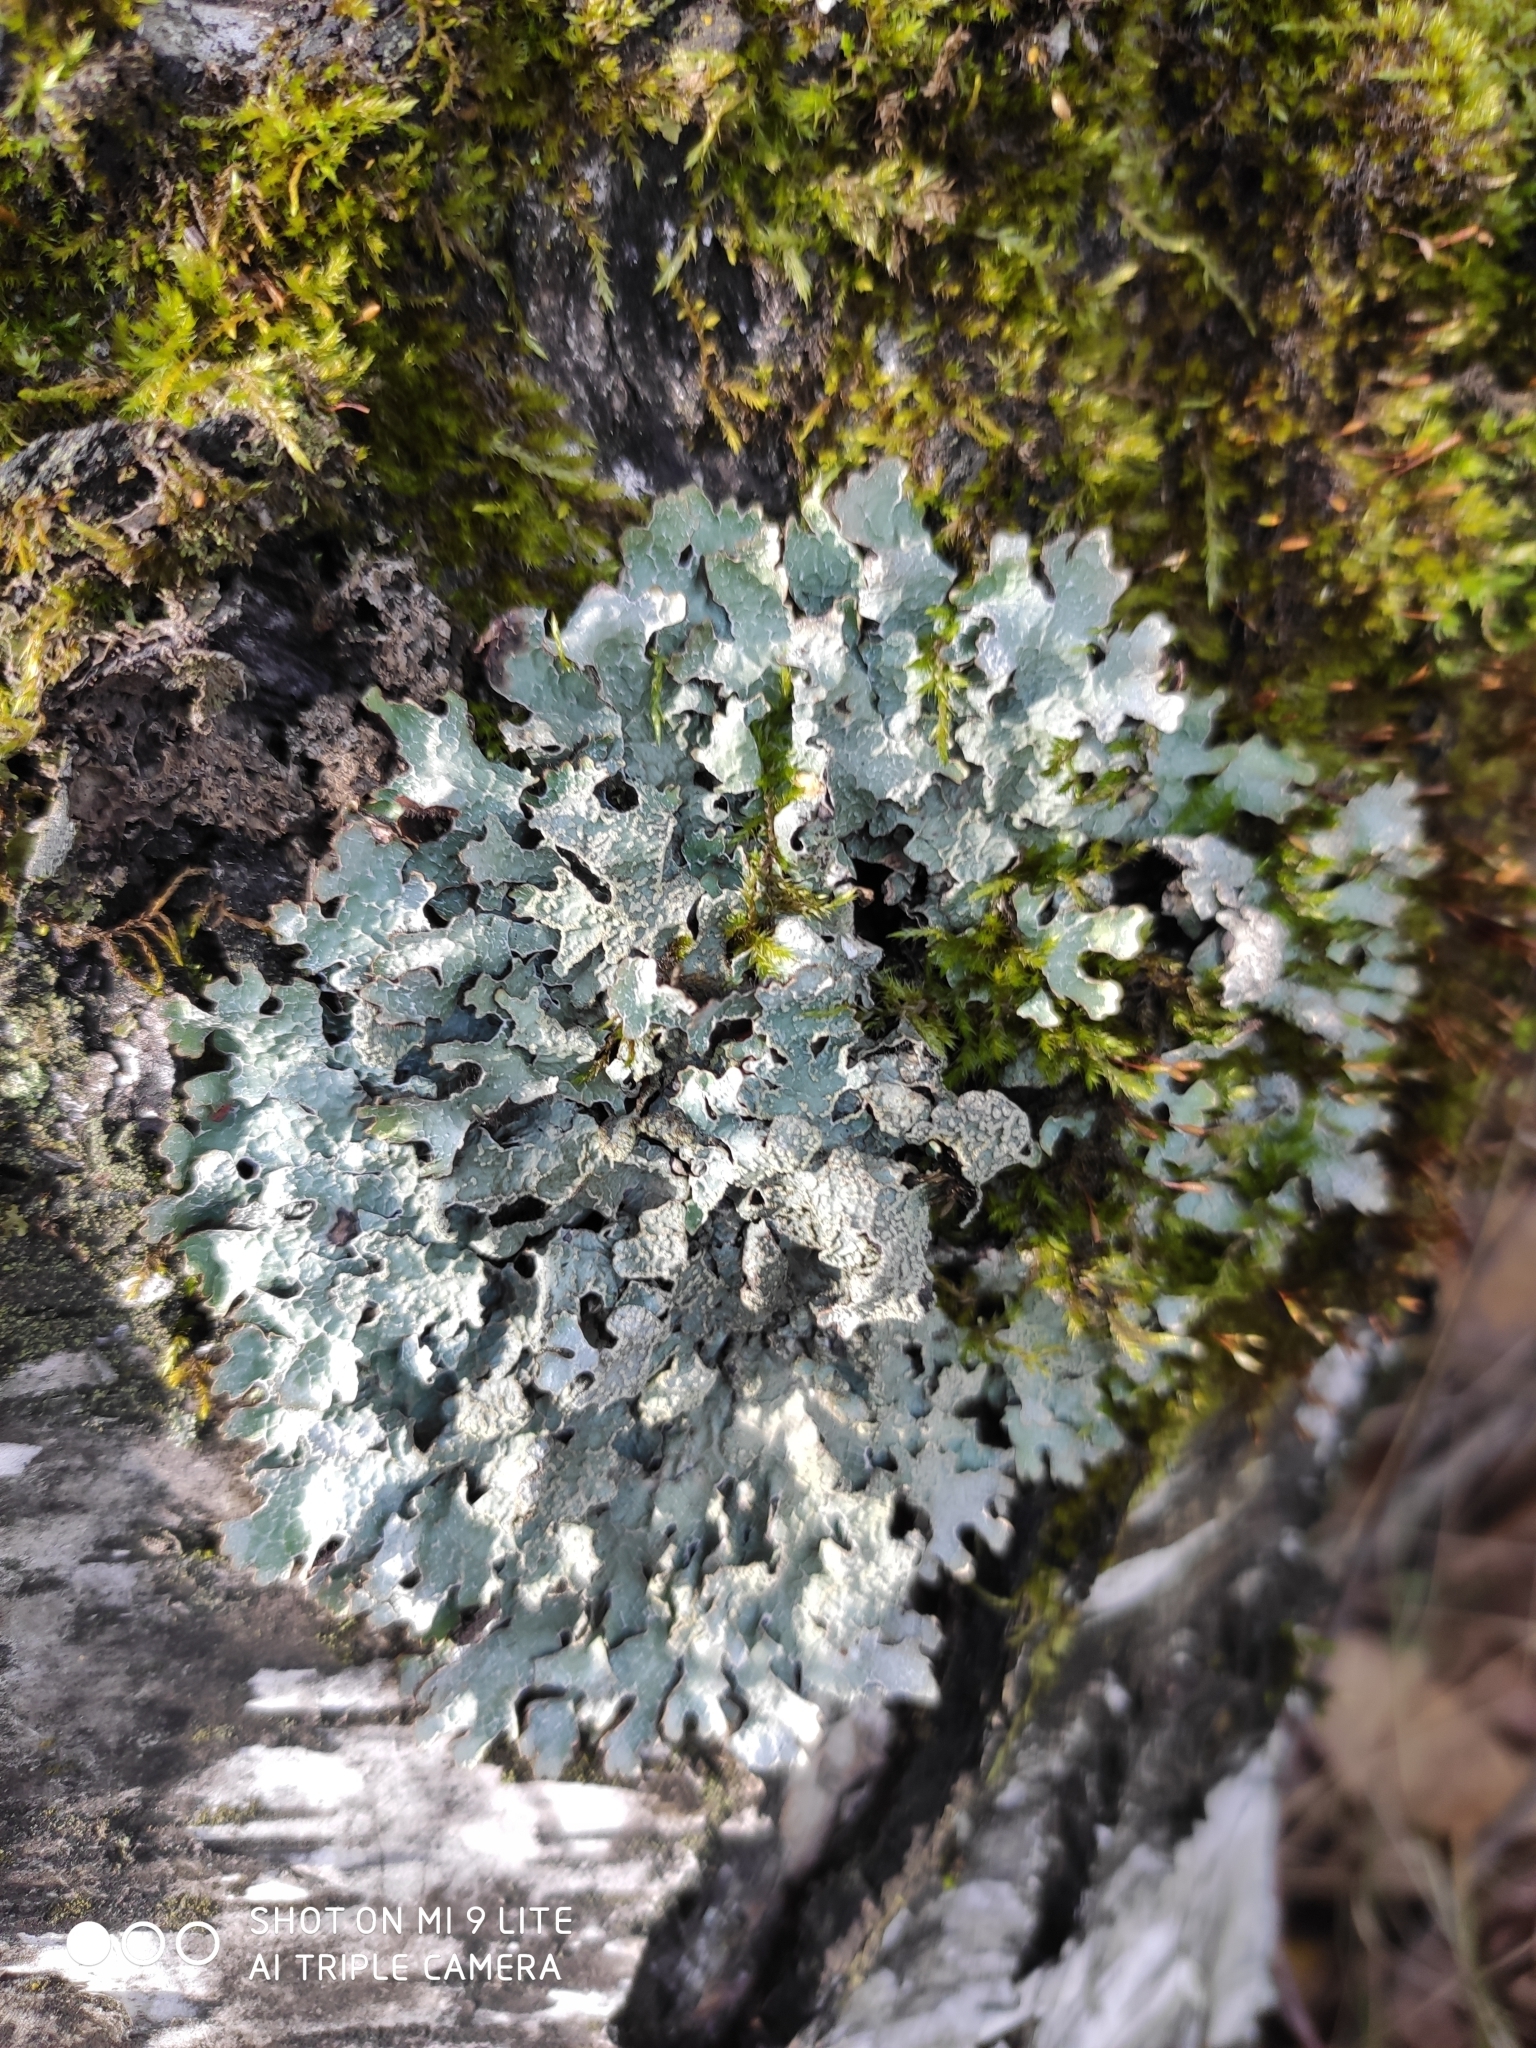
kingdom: Fungi
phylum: Ascomycota
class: Lecanoromycetes
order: Lecanorales
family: Parmeliaceae
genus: Parmelia
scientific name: Parmelia sulcata
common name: Netted shield lichen
